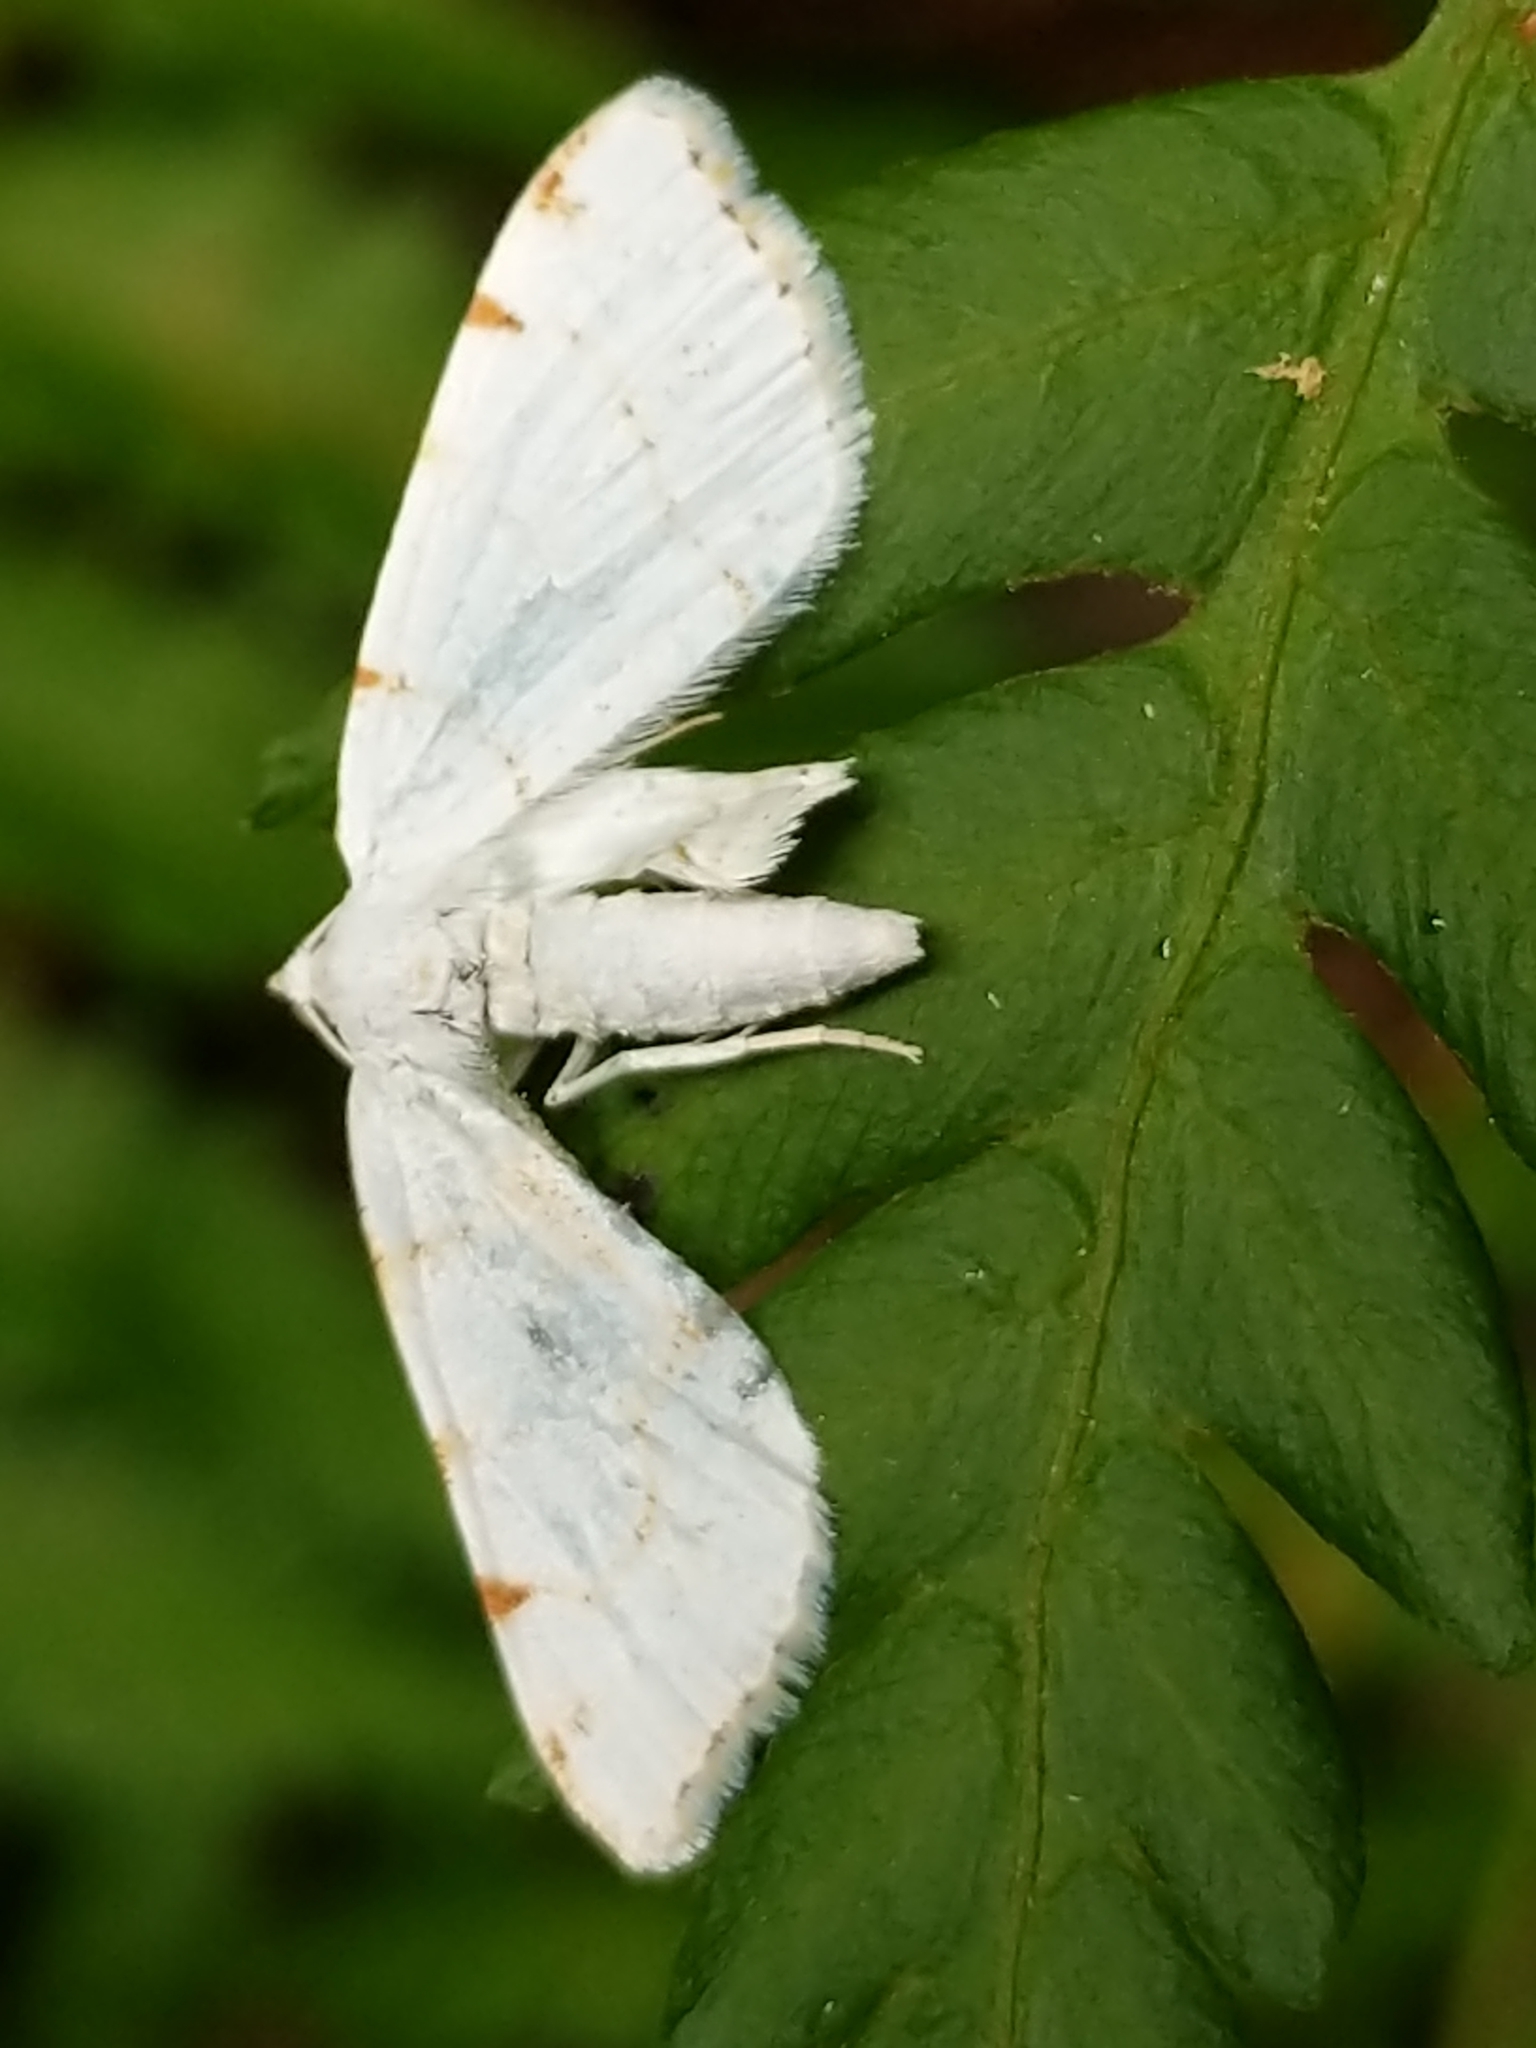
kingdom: Animalia
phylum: Arthropoda
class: Insecta
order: Lepidoptera
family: Geometridae
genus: Macaria
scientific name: Macaria pustularia
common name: Lesser maple spanworm moth
